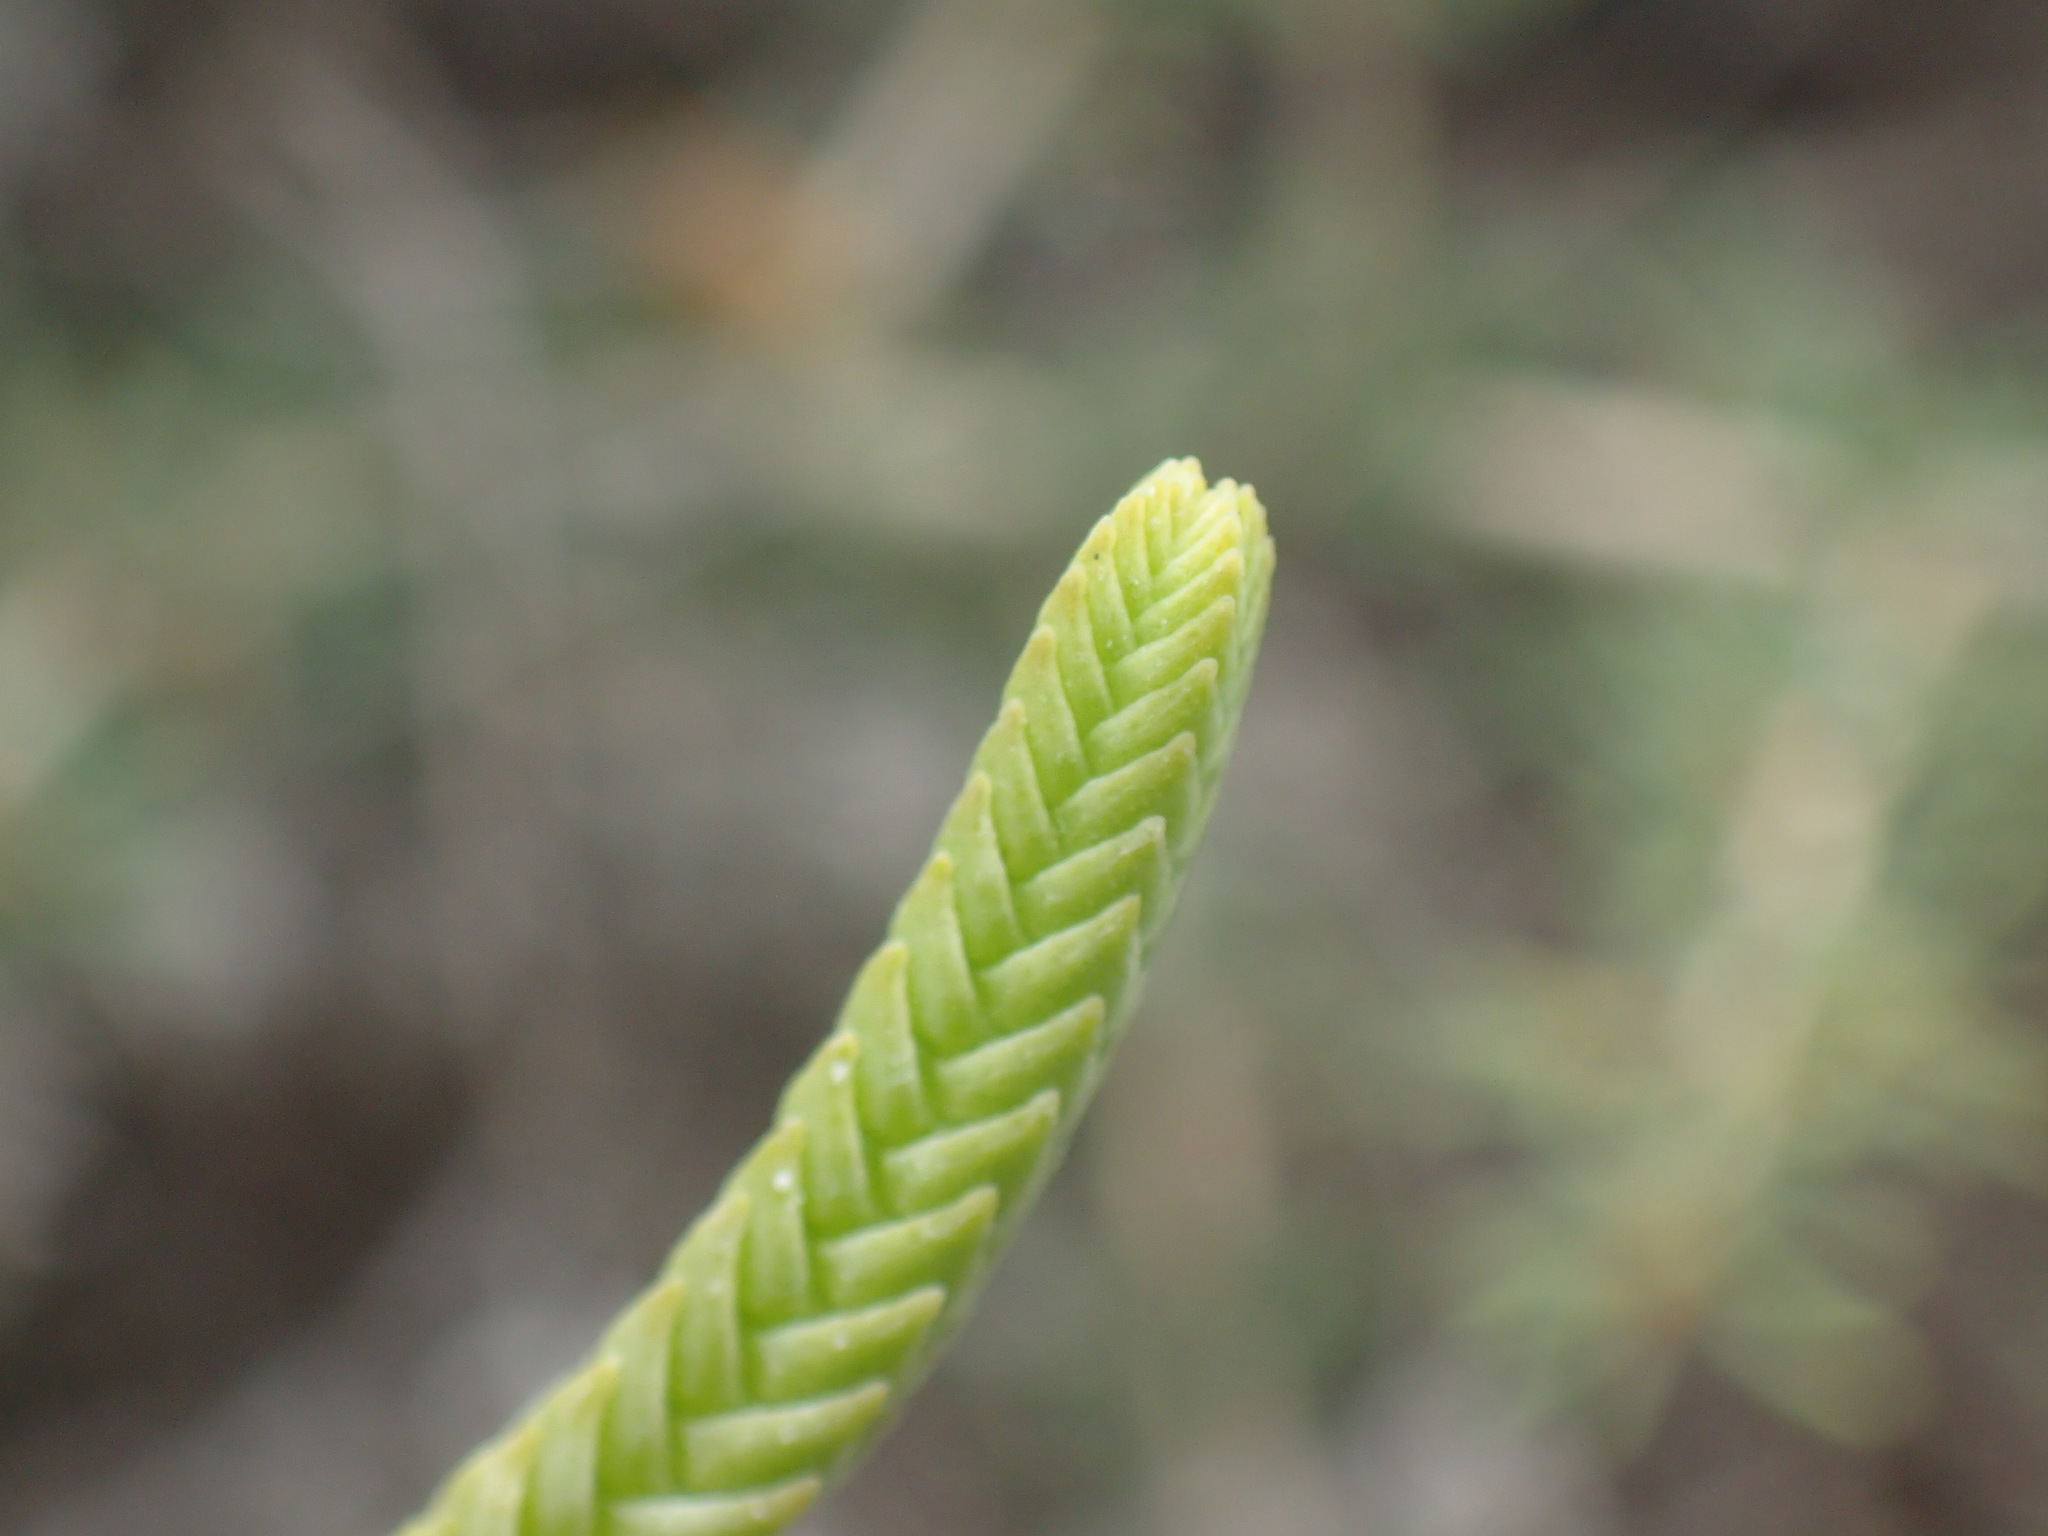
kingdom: Plantae
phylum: Tracheophyta
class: Magnoliopsida
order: Saxifragales
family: Crassulaceae
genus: Crassula
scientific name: Crassula muscosa
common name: Toy-cypress
